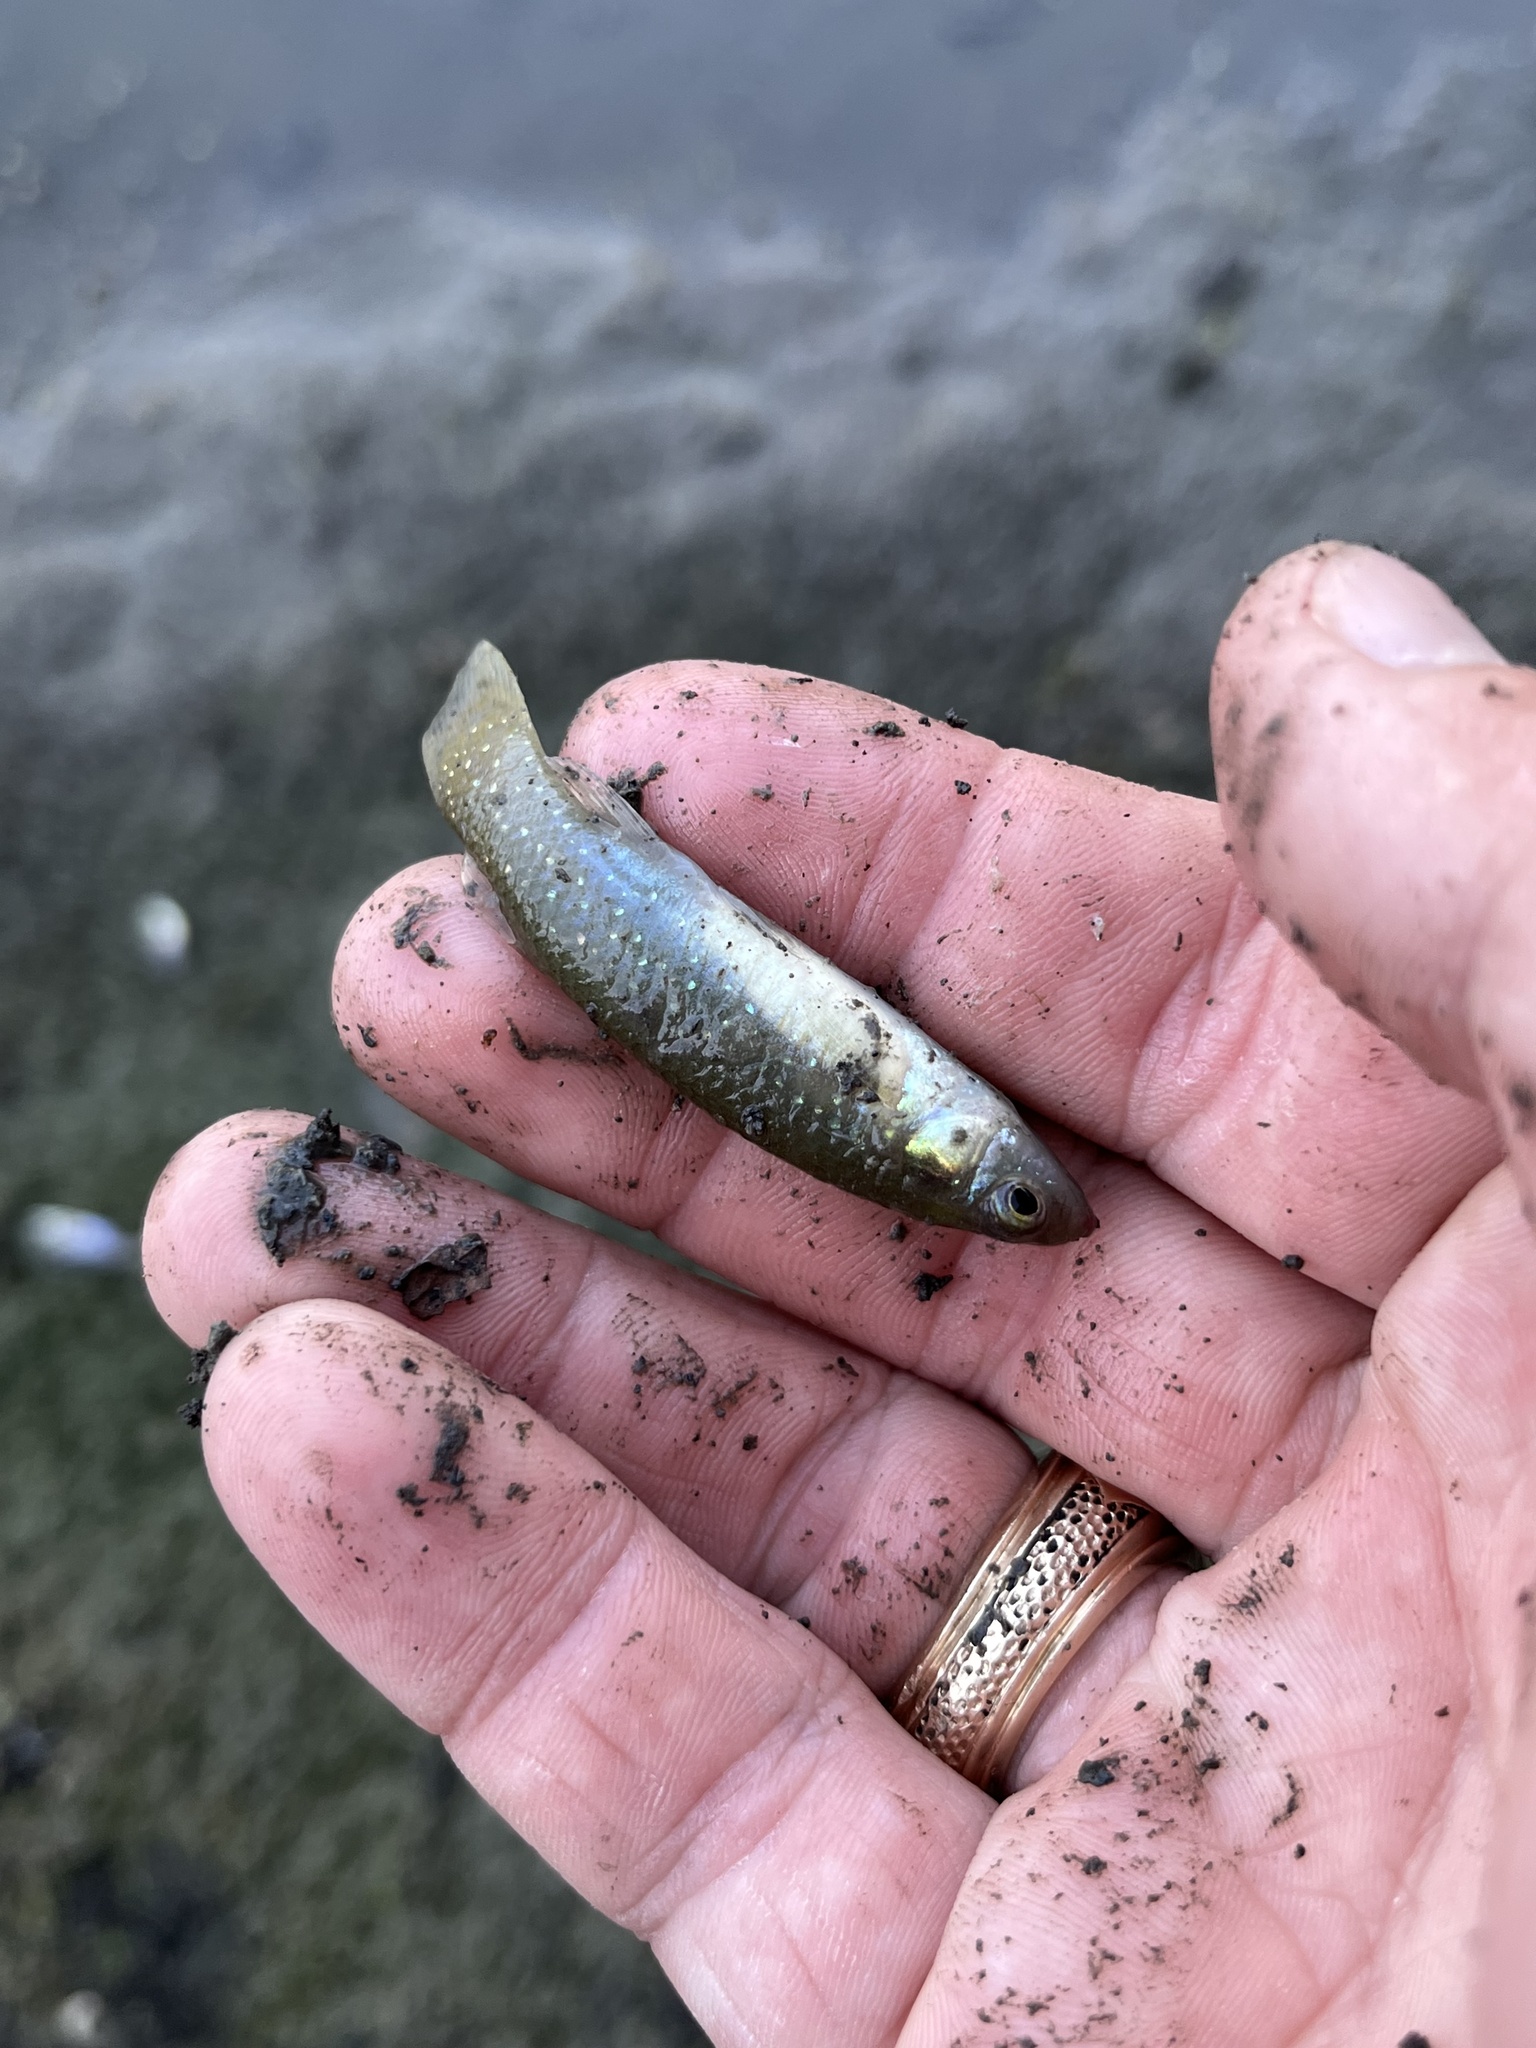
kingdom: Animalia
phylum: Chordata
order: Cyprinodontiformes
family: Fundulidae
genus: Fundulus
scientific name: Fundulus chrysotus
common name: Golden topminnow
